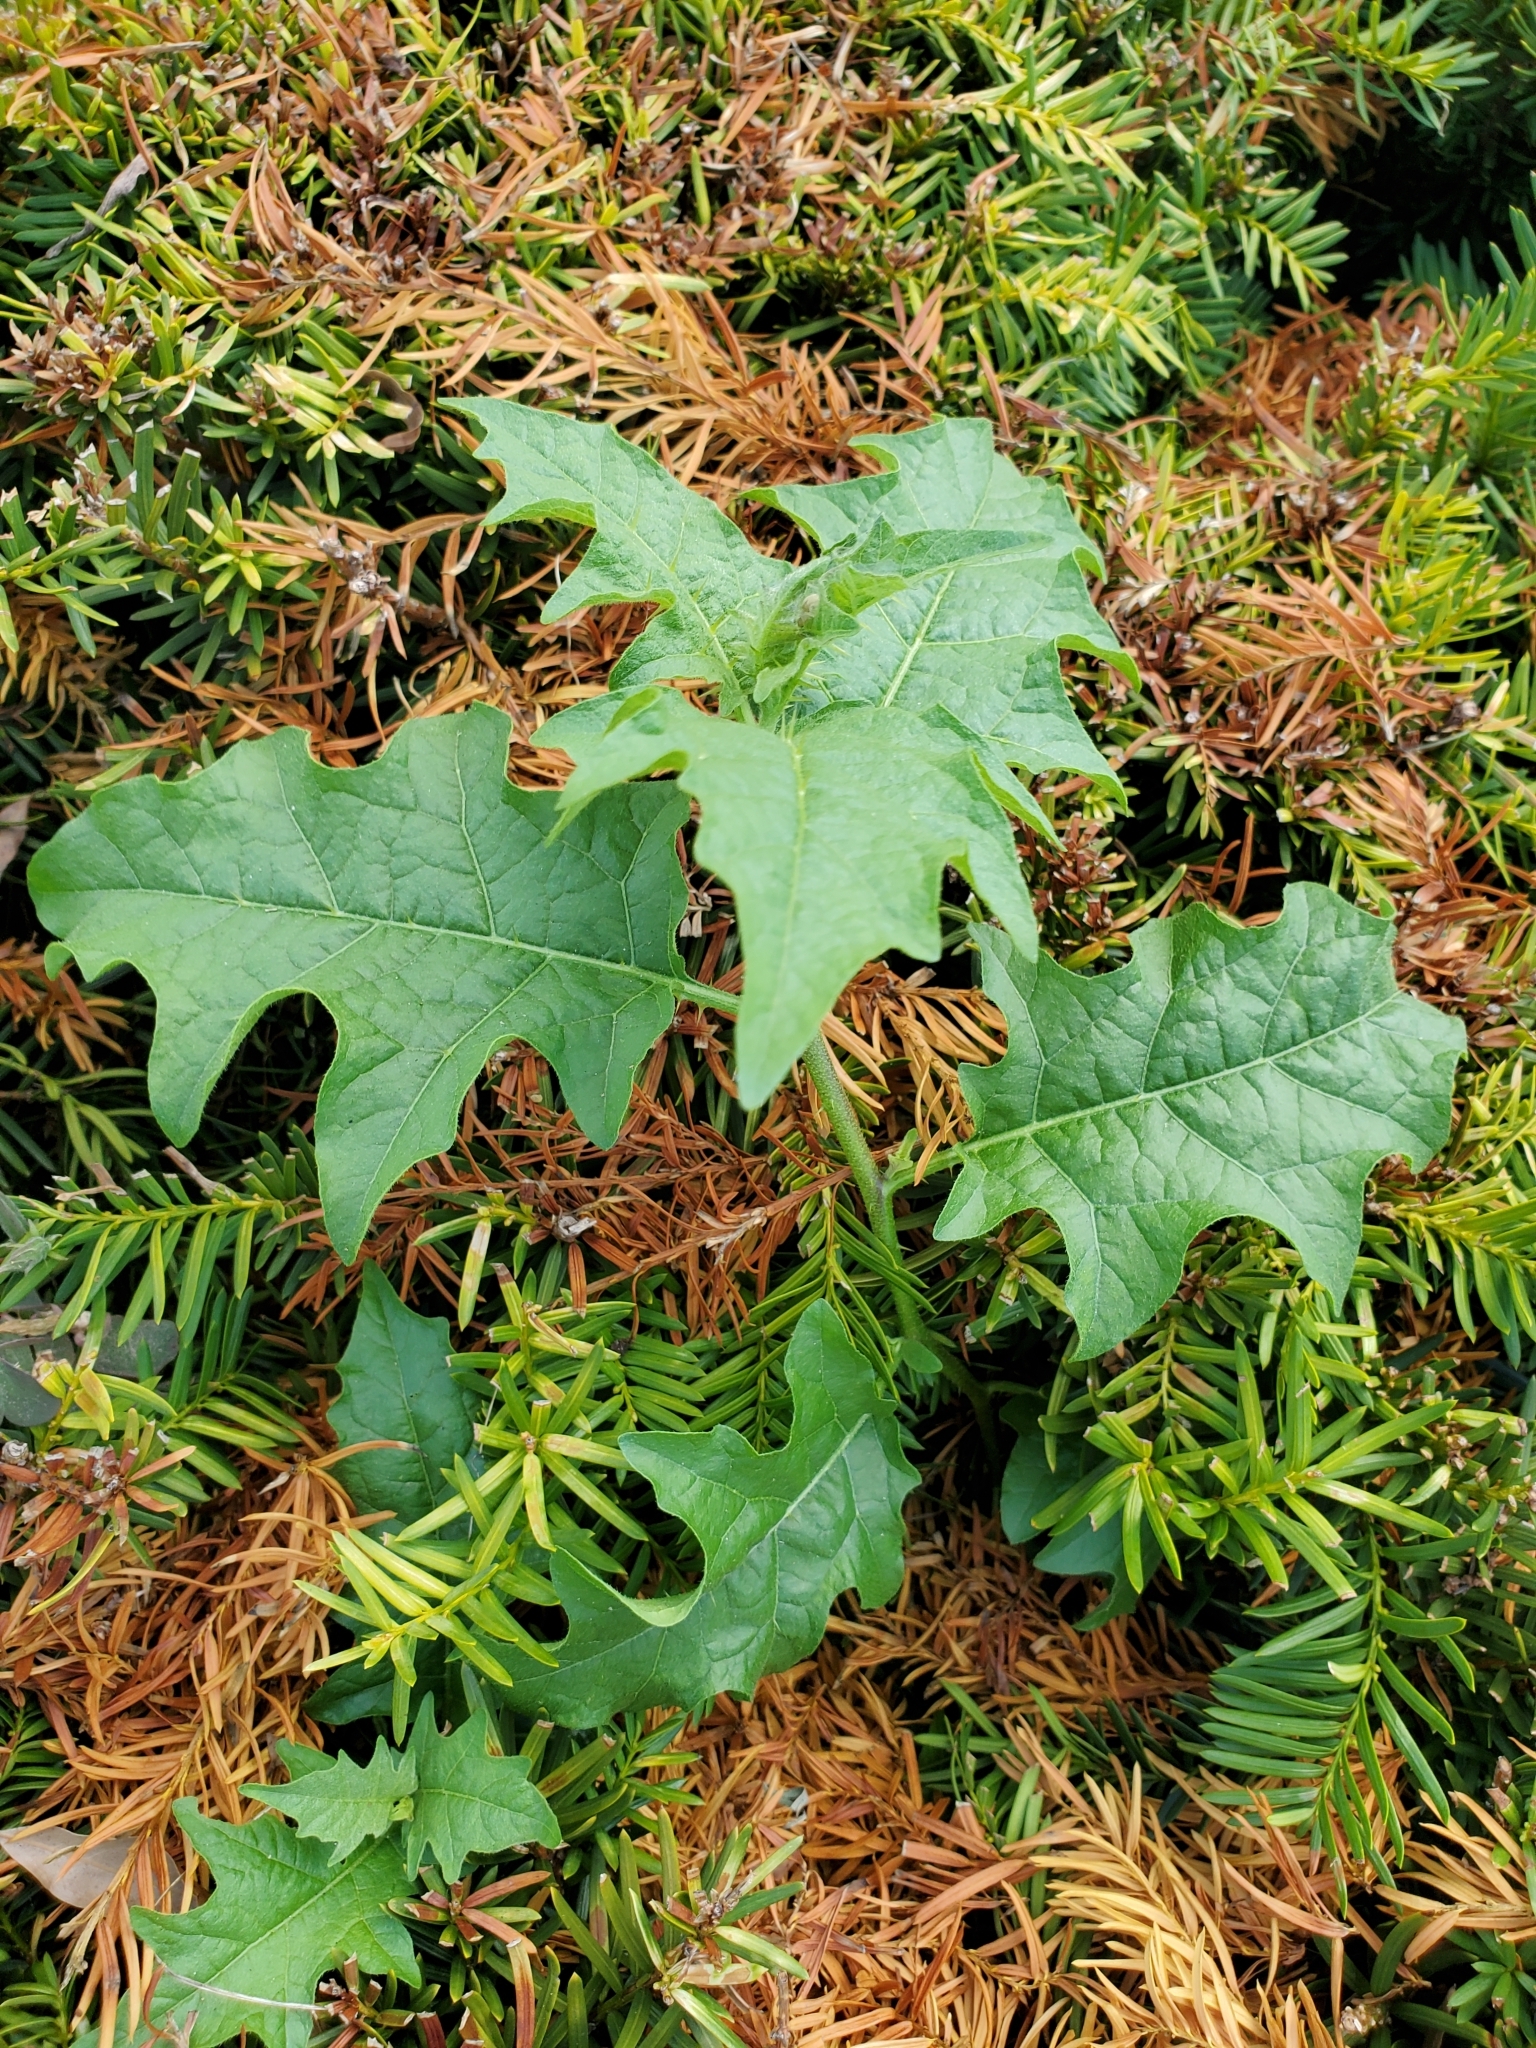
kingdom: Plantae
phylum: Tracheophyta
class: Magnoliopsida
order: Solanales
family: Solanaceae
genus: Solanum
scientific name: Solanum carolinense
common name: Horse-nettle
